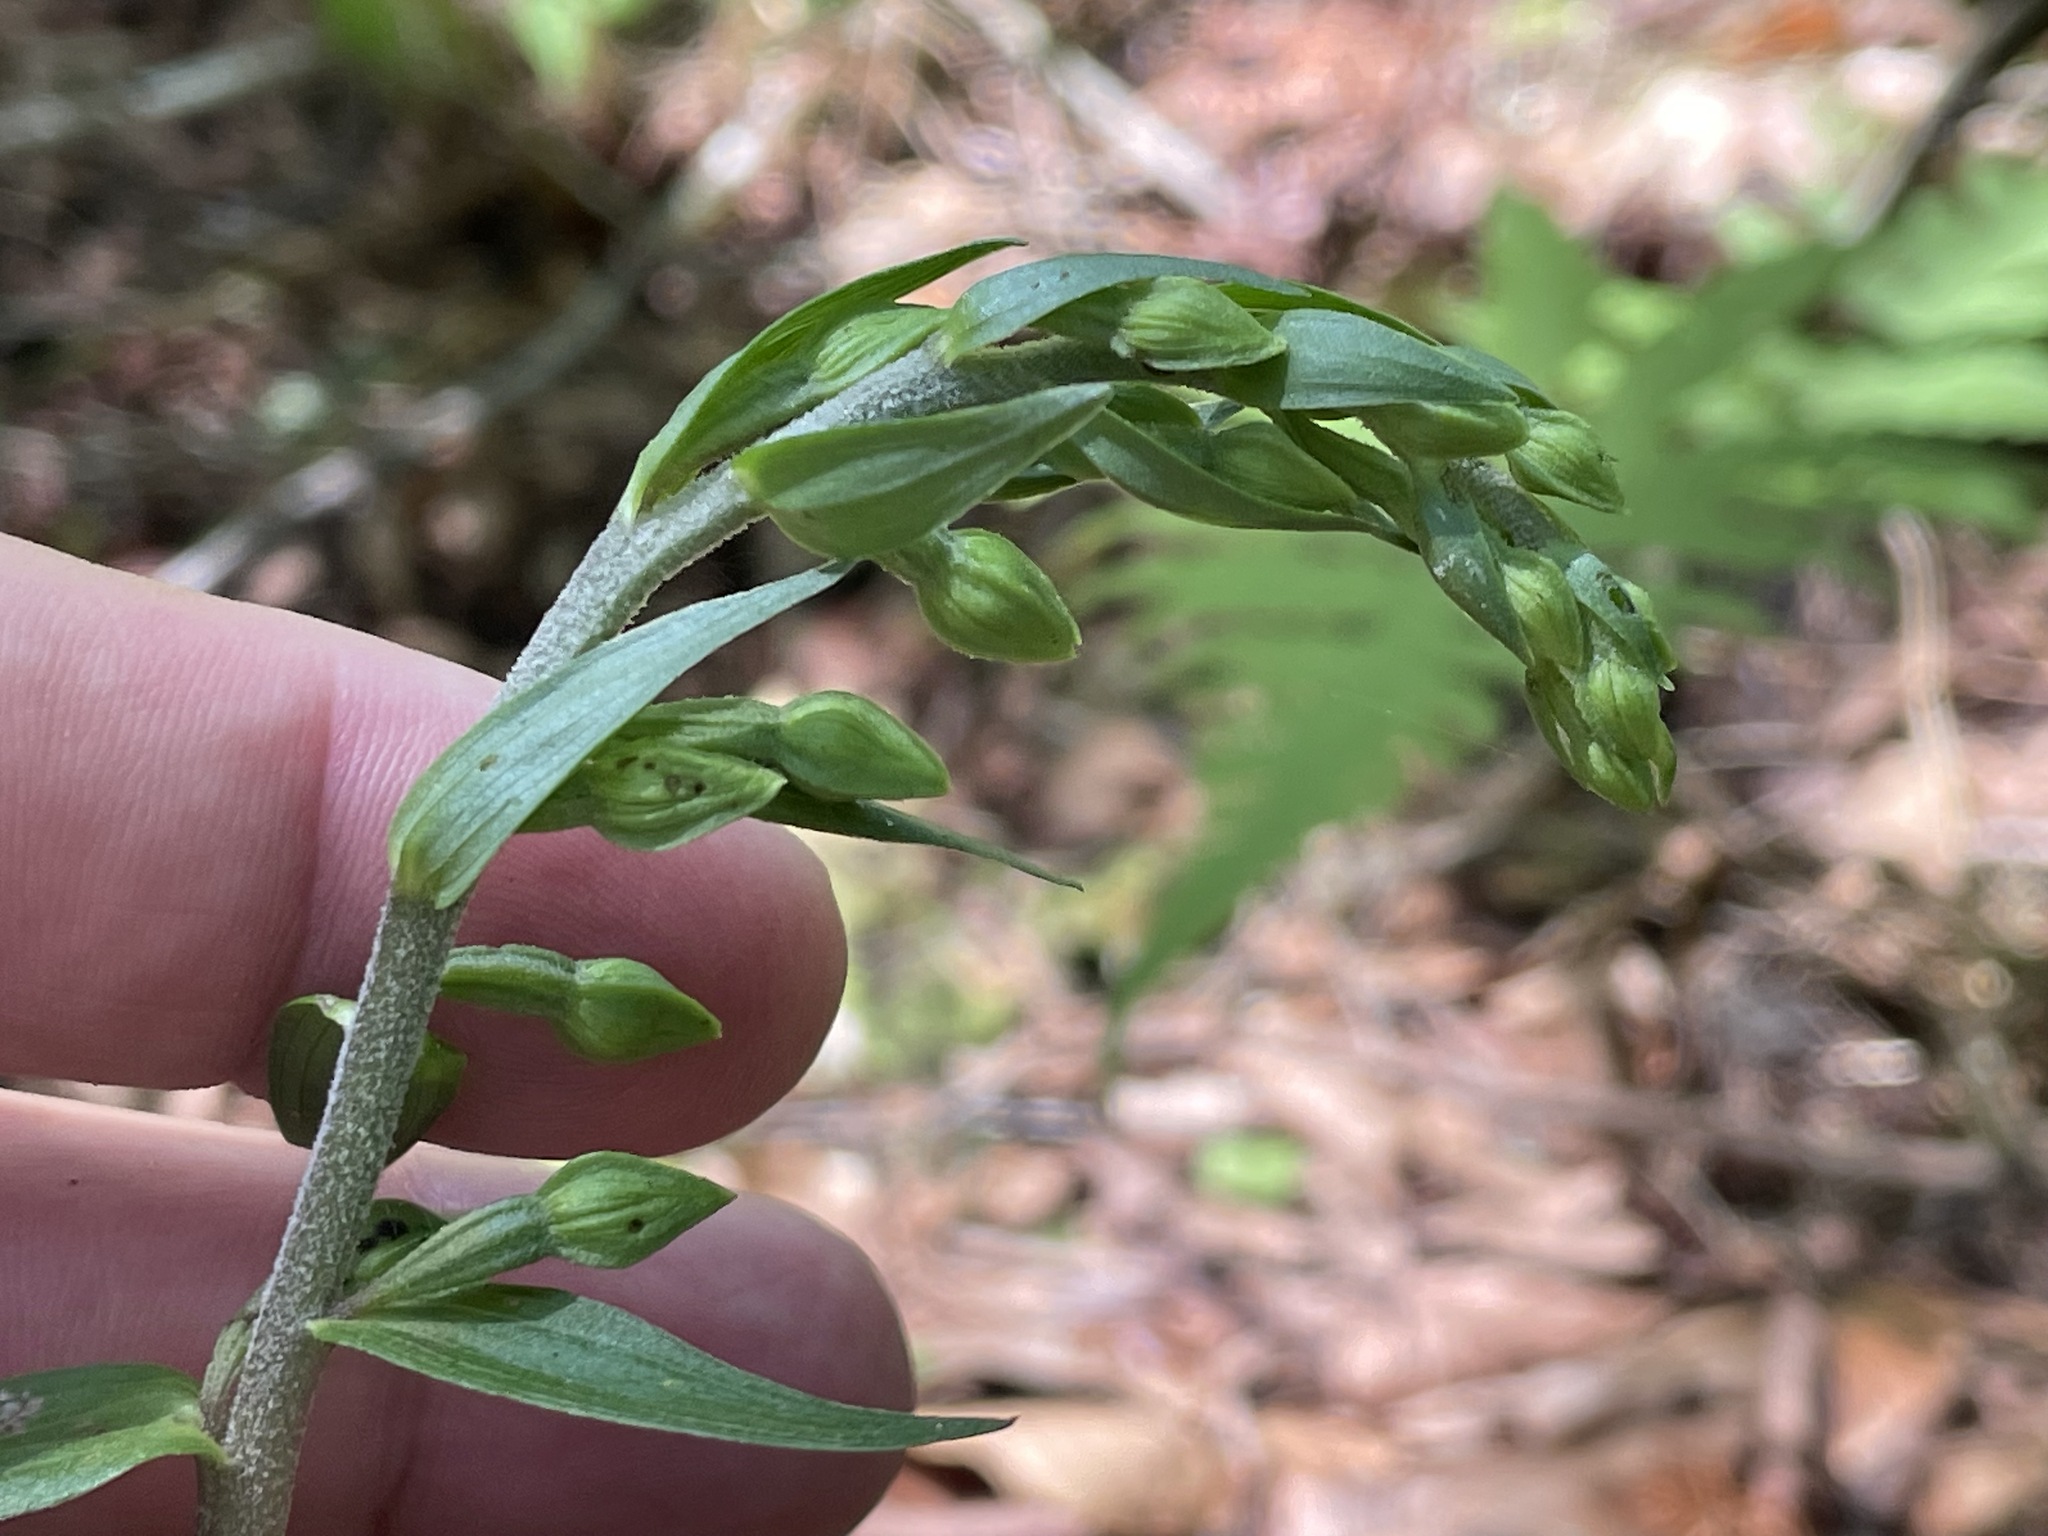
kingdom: Plantae
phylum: Tracheophyta
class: Liliopsida
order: Asparagales
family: Orchidaceae
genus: Epipactis
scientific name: Epipactis helleborine
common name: Broad-leaved helleborine
